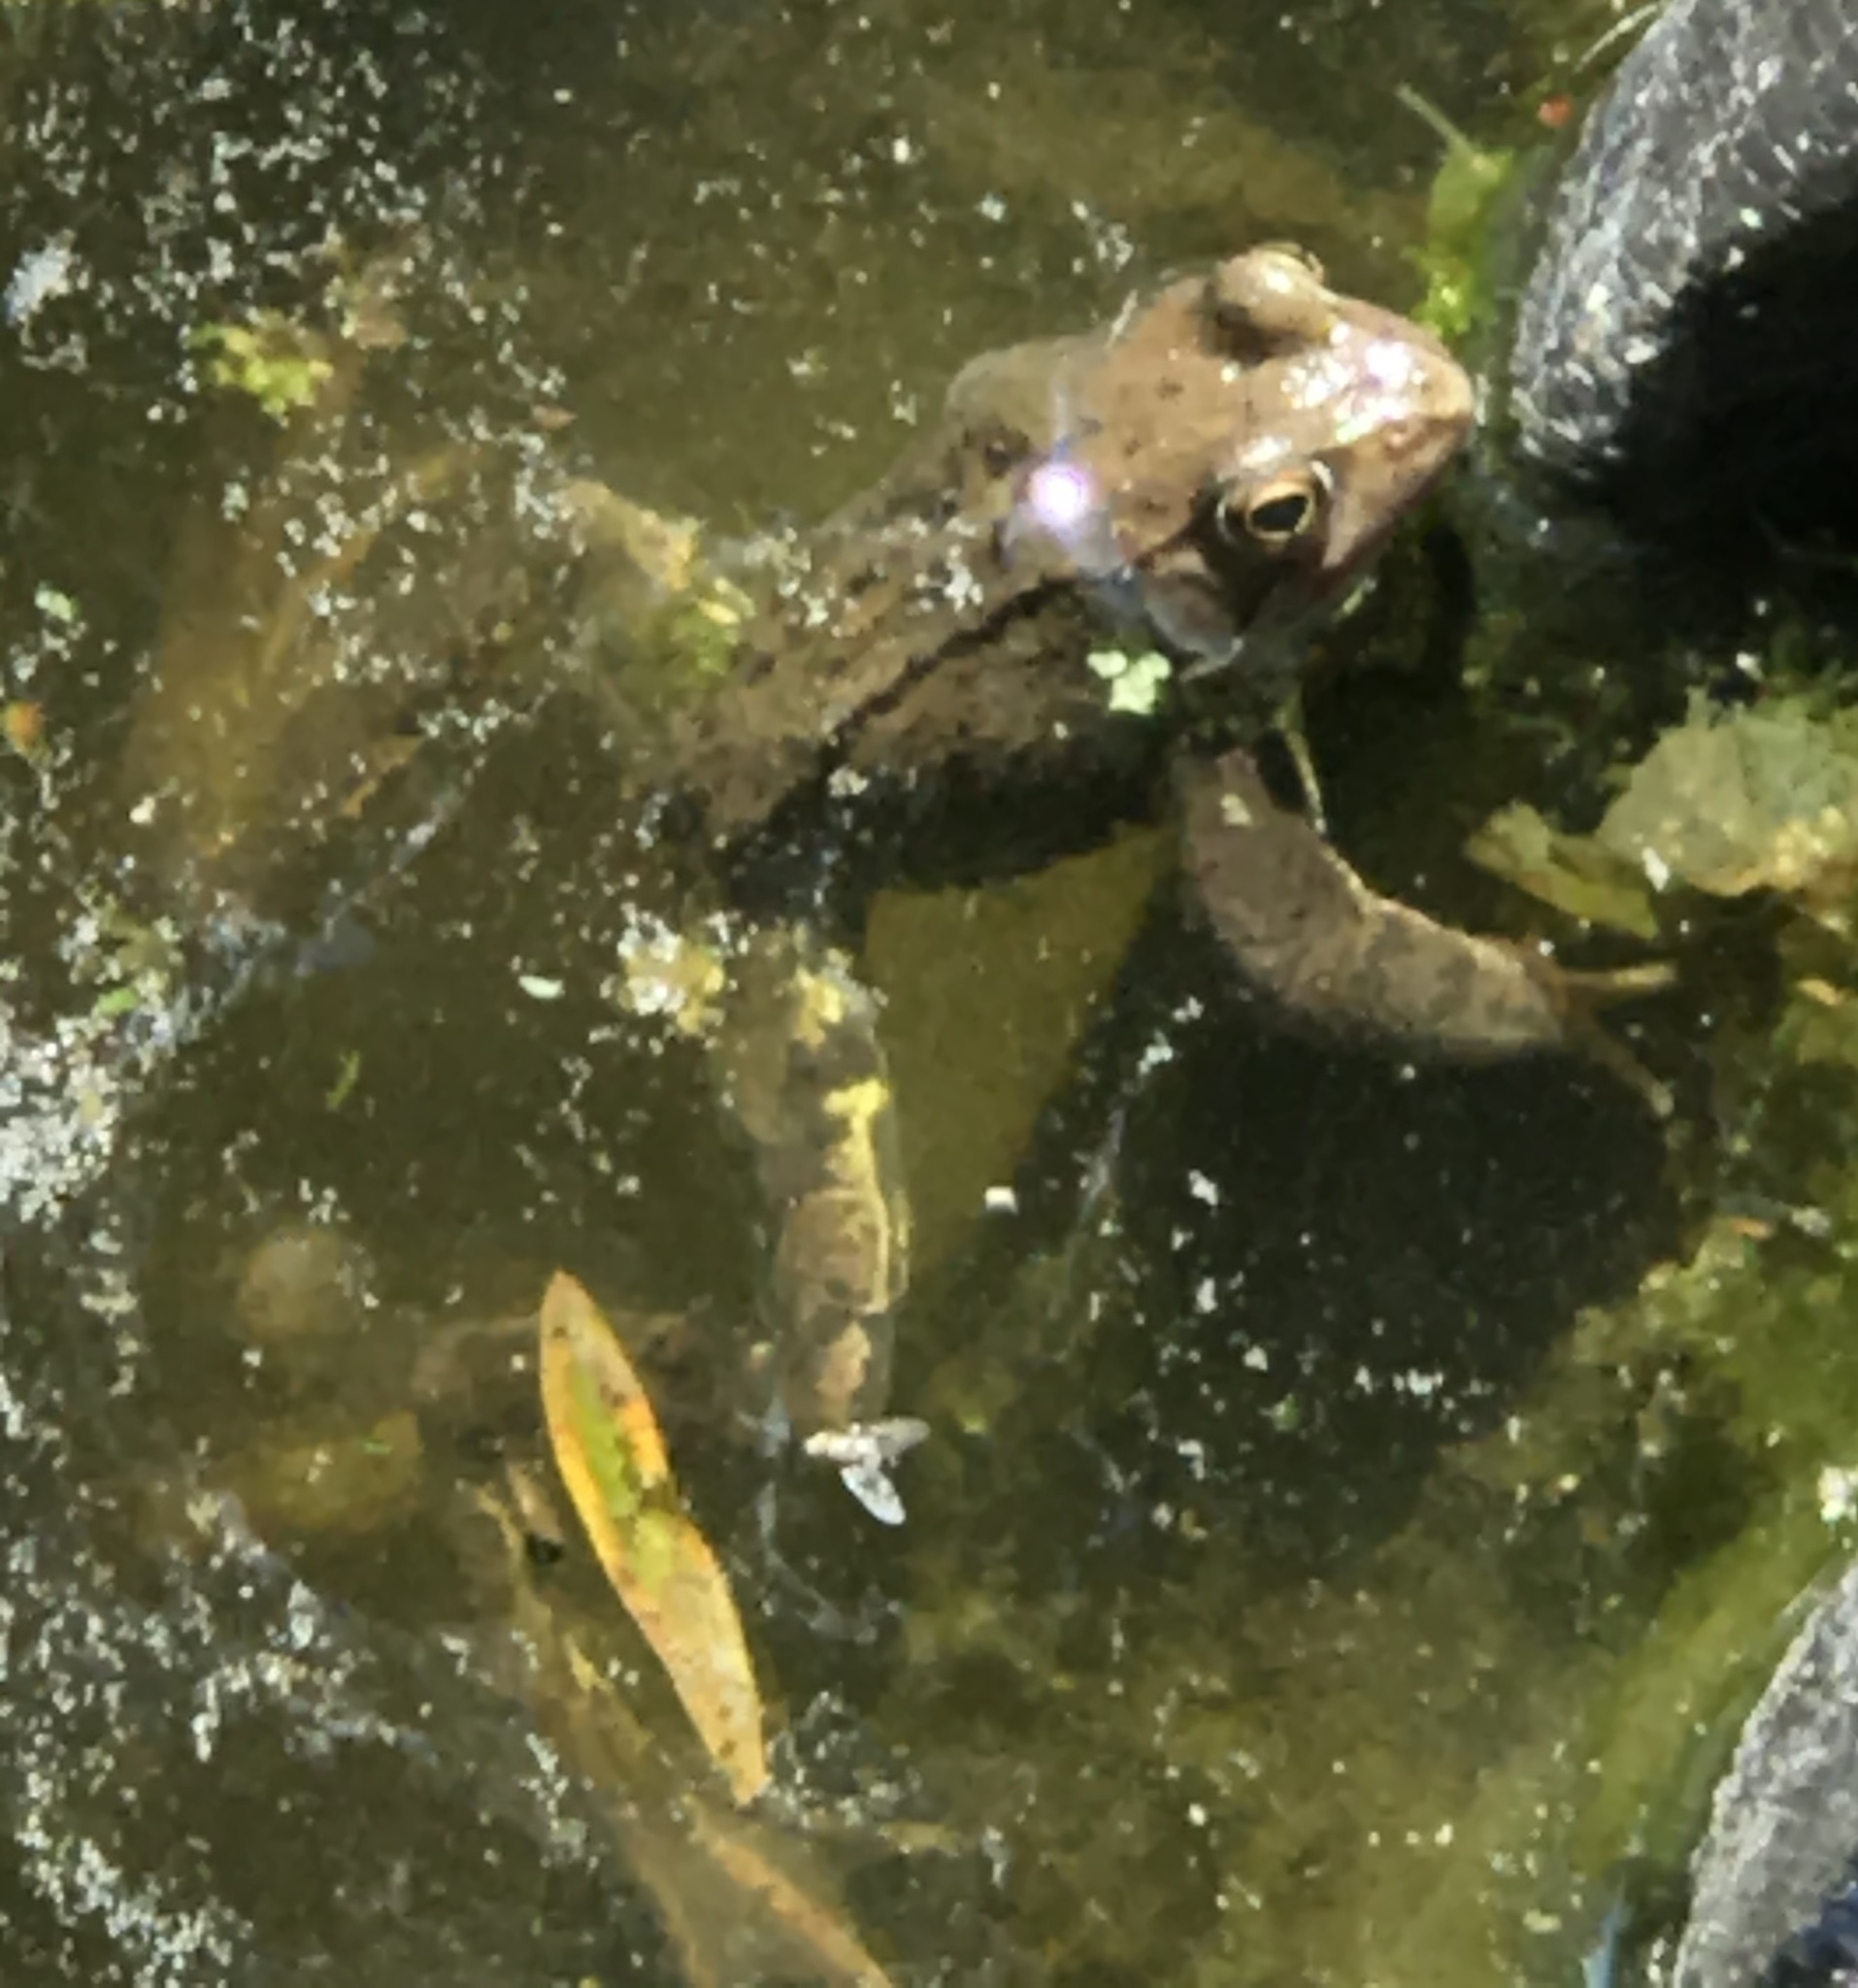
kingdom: Animalia
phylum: Chordata
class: Amphibia
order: Anura
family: Ranidae
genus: Rana
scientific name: Rana temporaria
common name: Common frog
